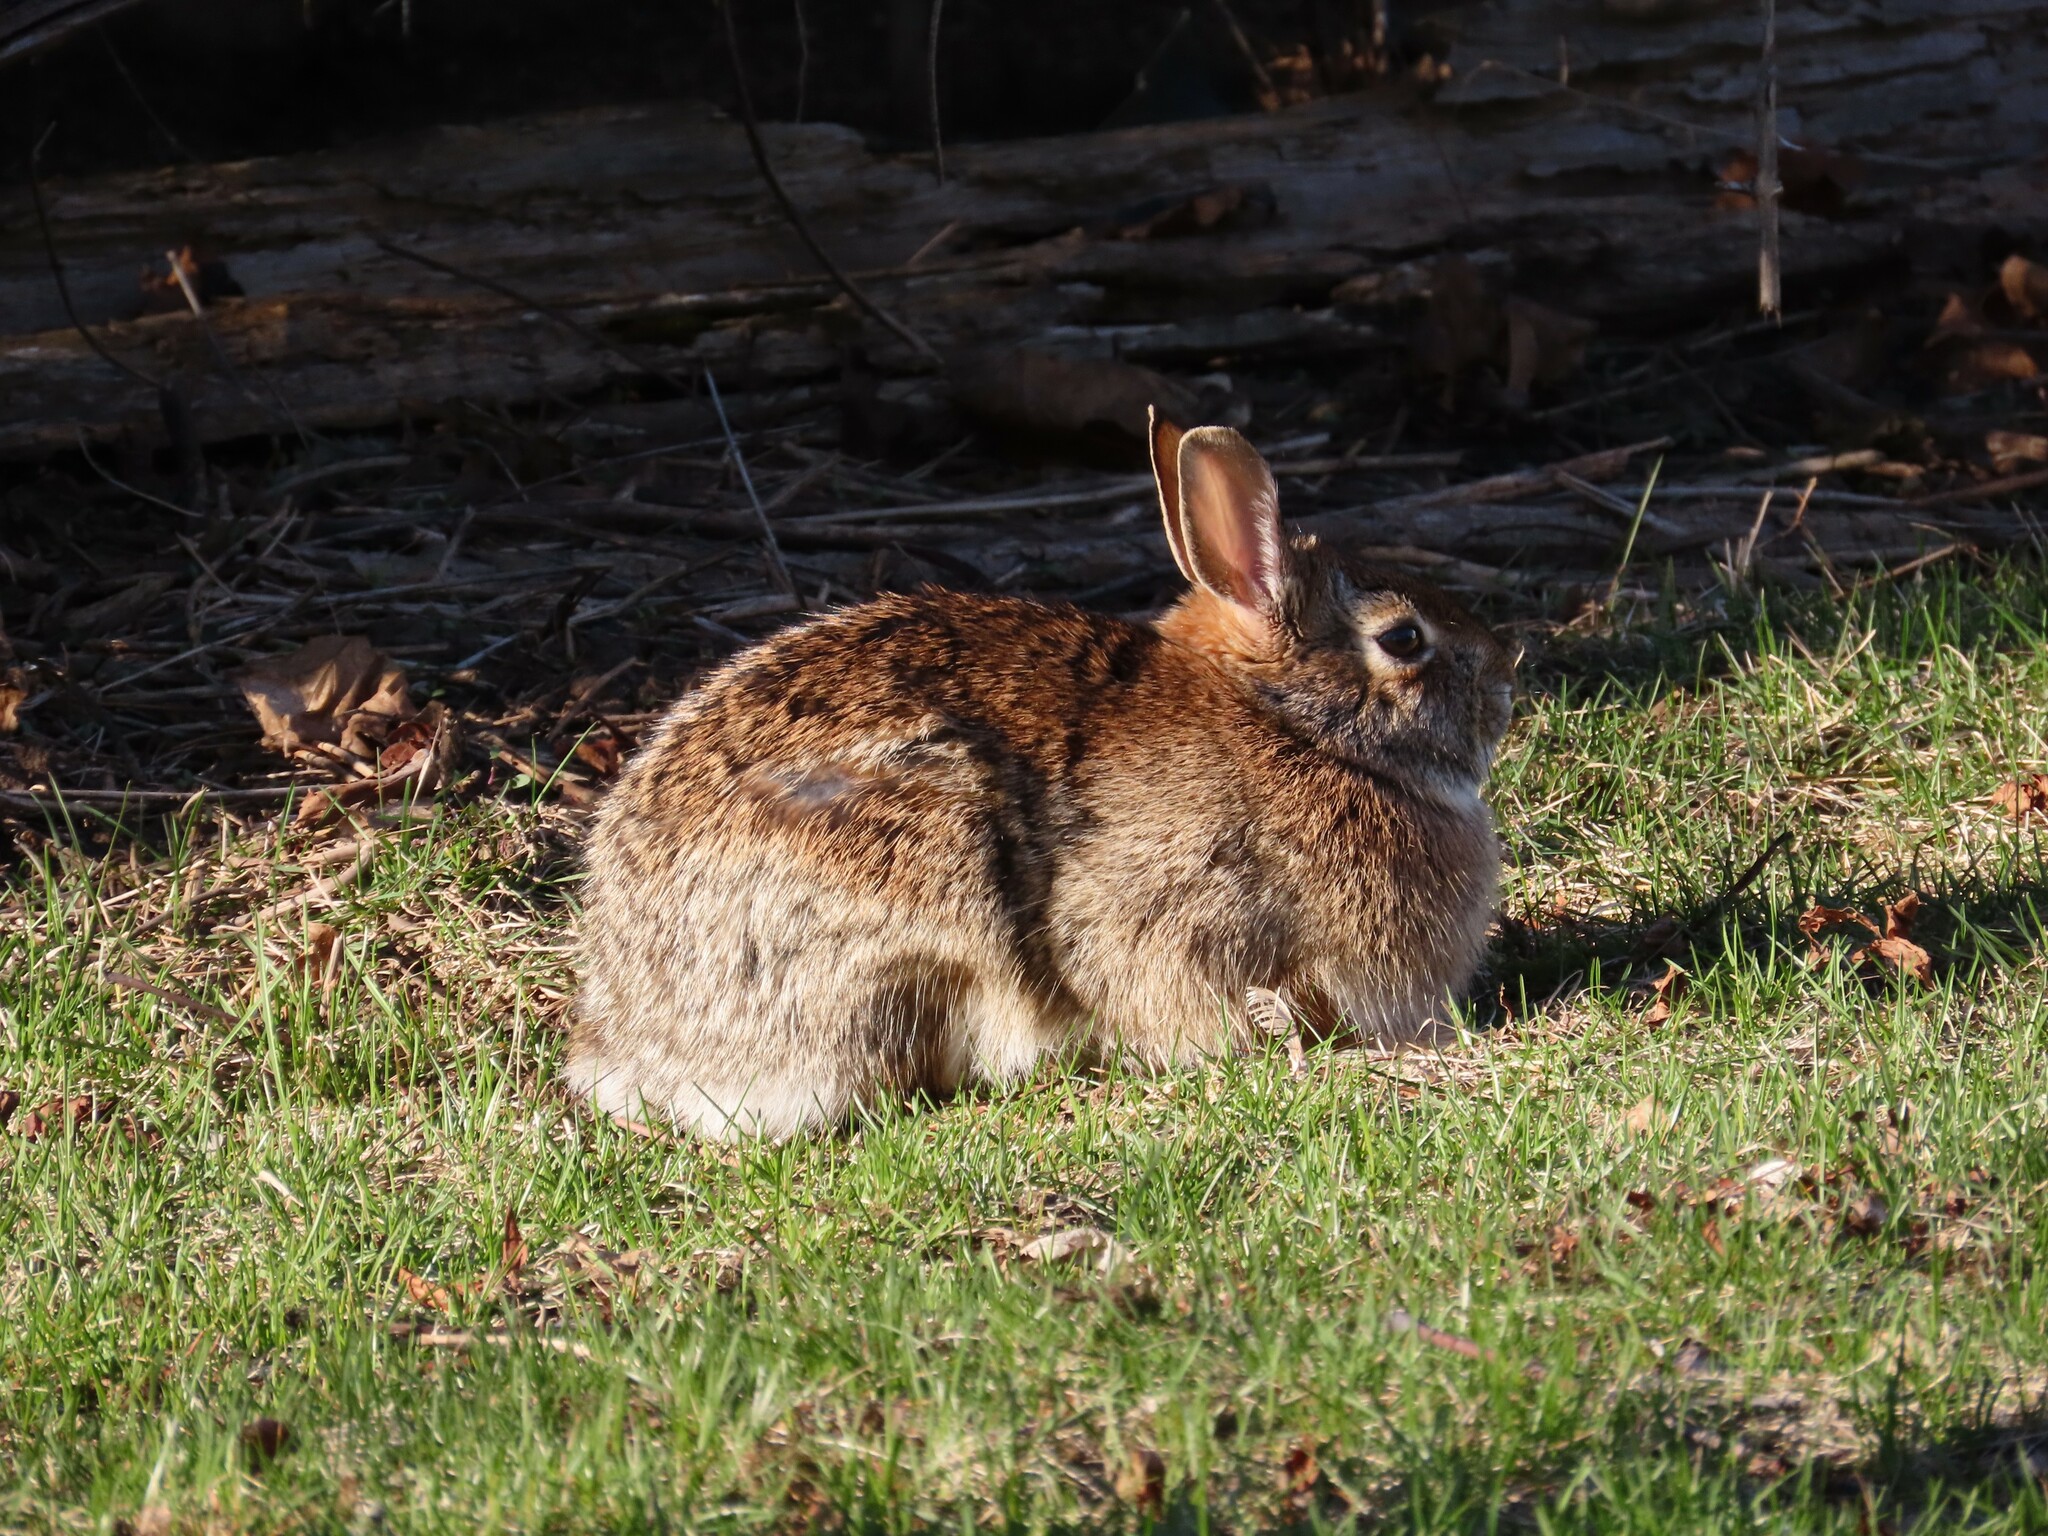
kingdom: Animalia
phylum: Chordata
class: Mammalia
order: Lagomorpha
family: Leporidae
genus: Sylvilagus
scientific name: Sylvilagus floridanus
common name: Eastern cottontail
